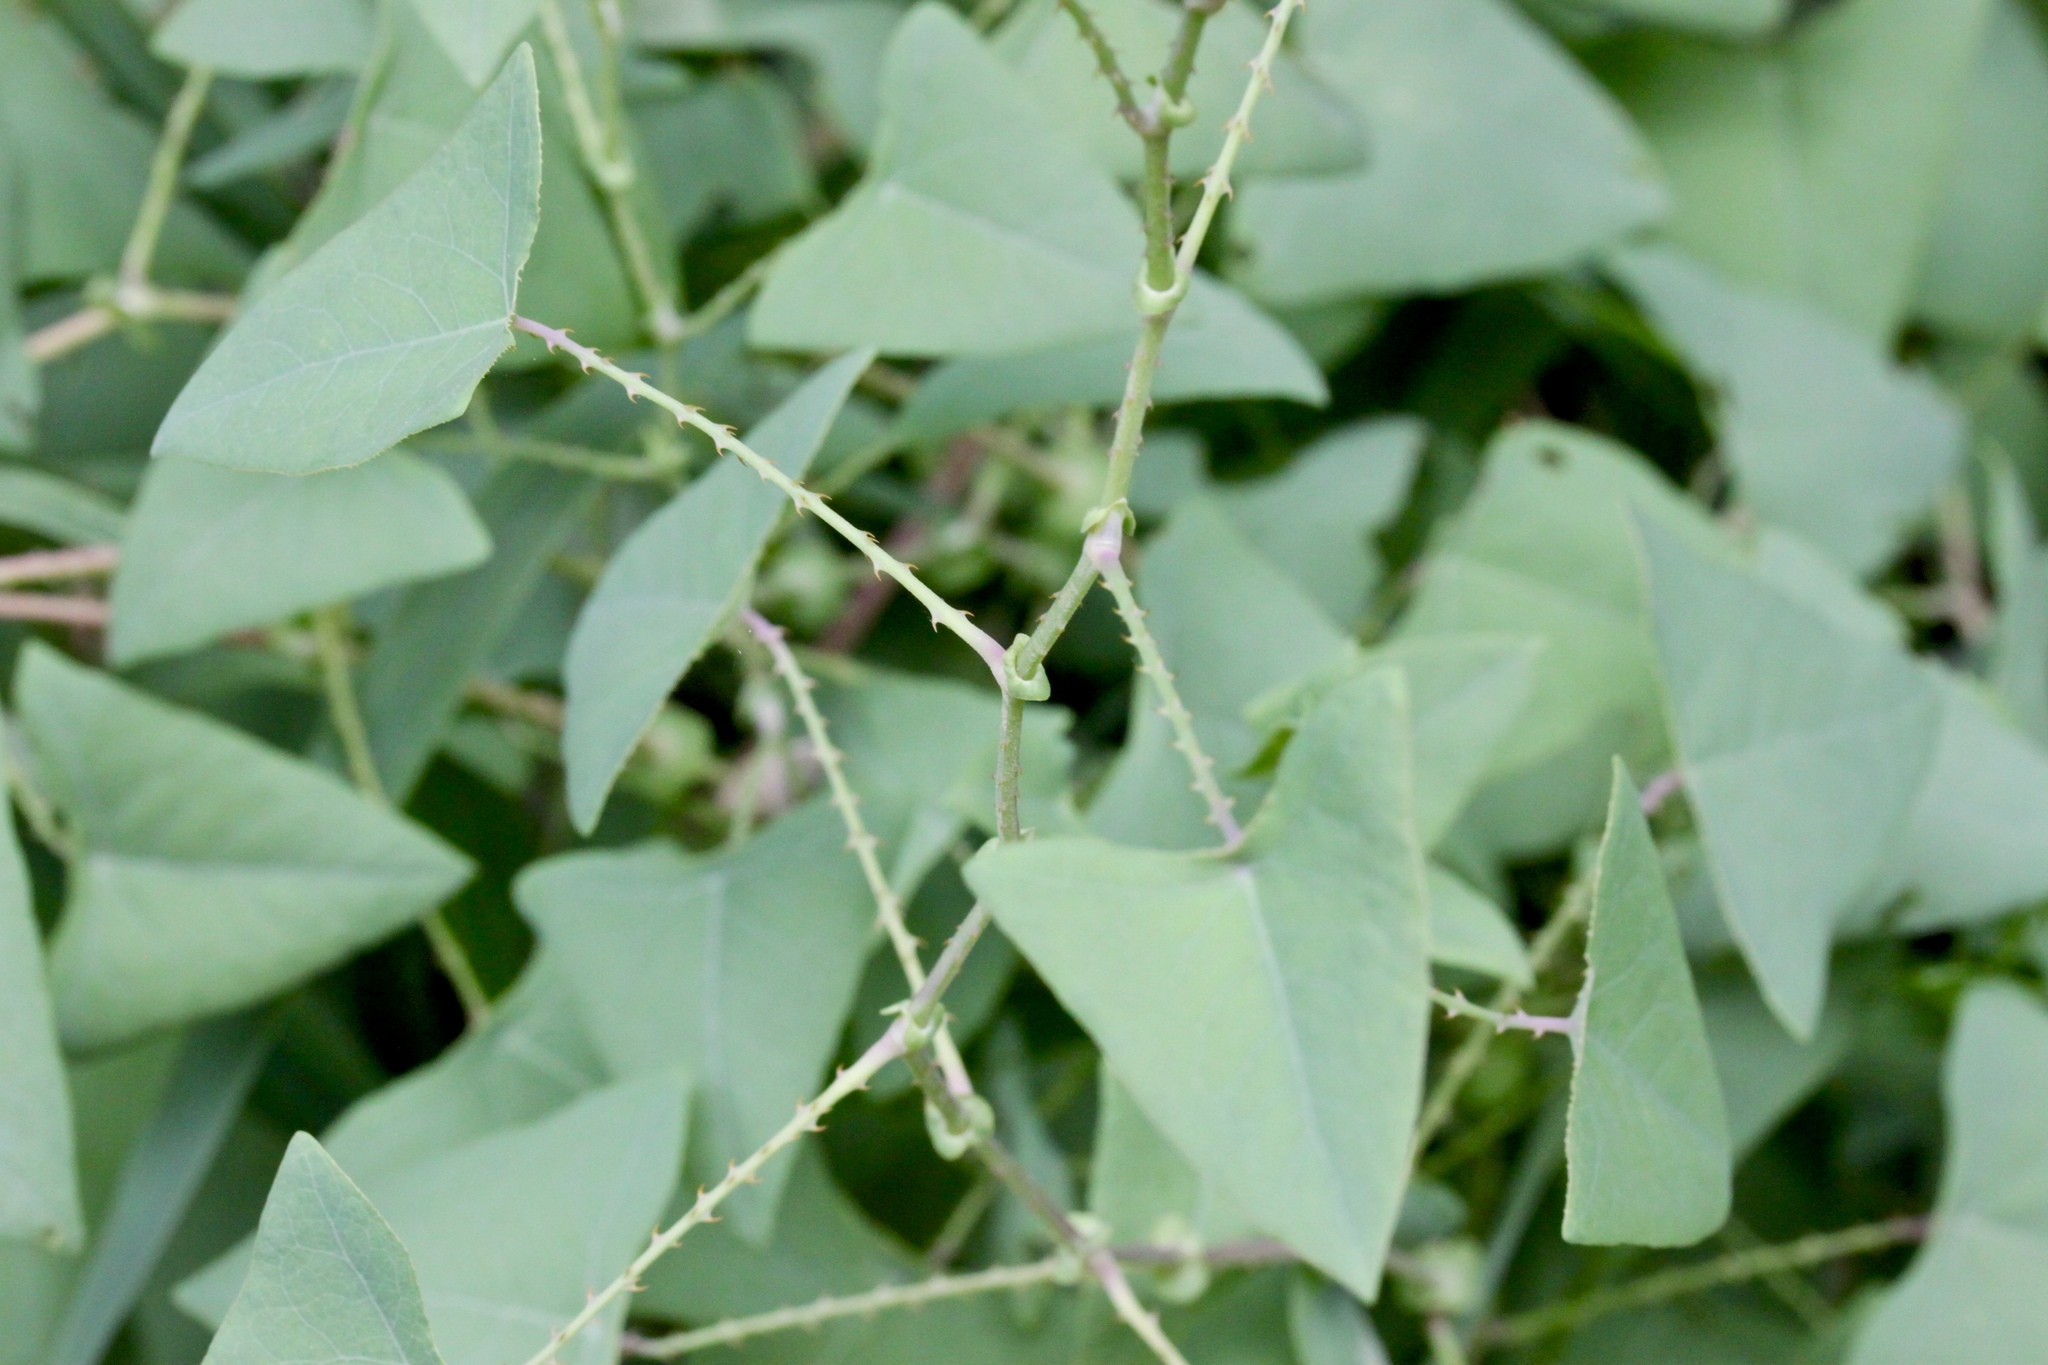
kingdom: Plantae
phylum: Tracheophyta
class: Magnoliopsida
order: Caryophyllales
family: Polygonaceae
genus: Persicaria
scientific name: Persicaria perfoliata
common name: Asiatic tearthumb
